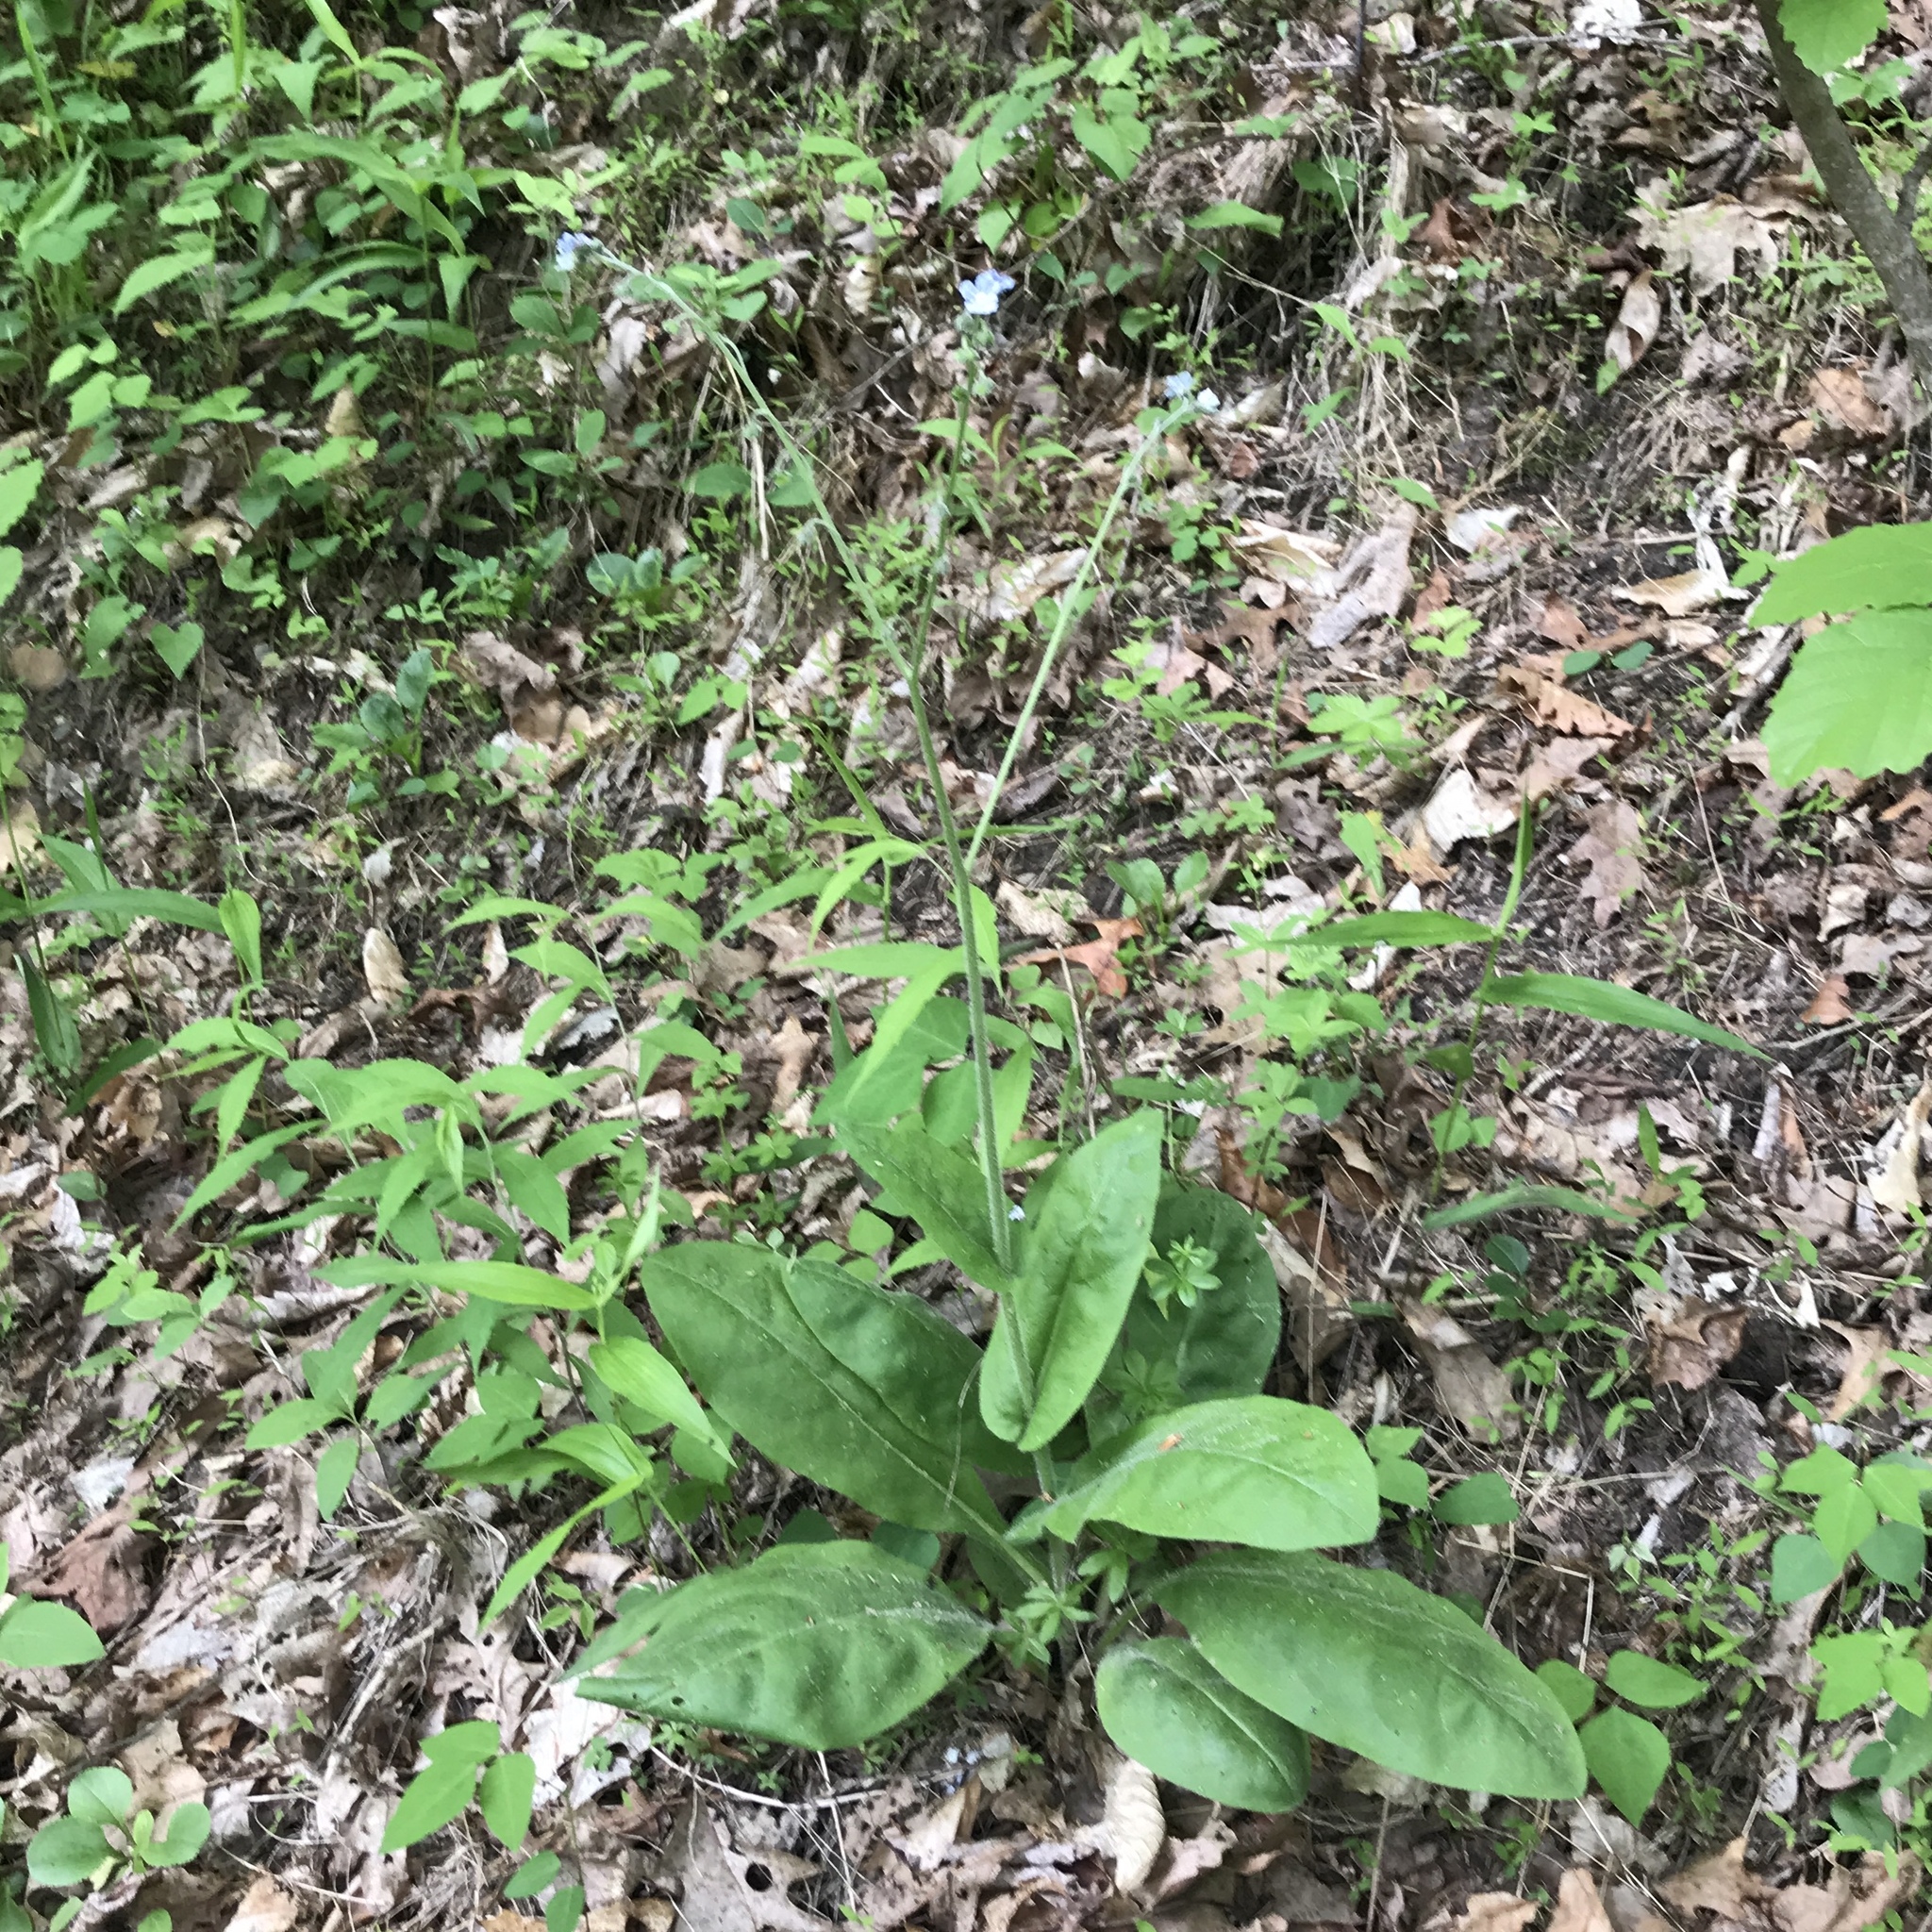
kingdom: Plantae
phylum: Tracheophyta
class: Magnoliopsida
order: Boraginales
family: Boraginaceae
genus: Andersonglossum
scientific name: Andersonglossum virginianum
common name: Wild comfrey
